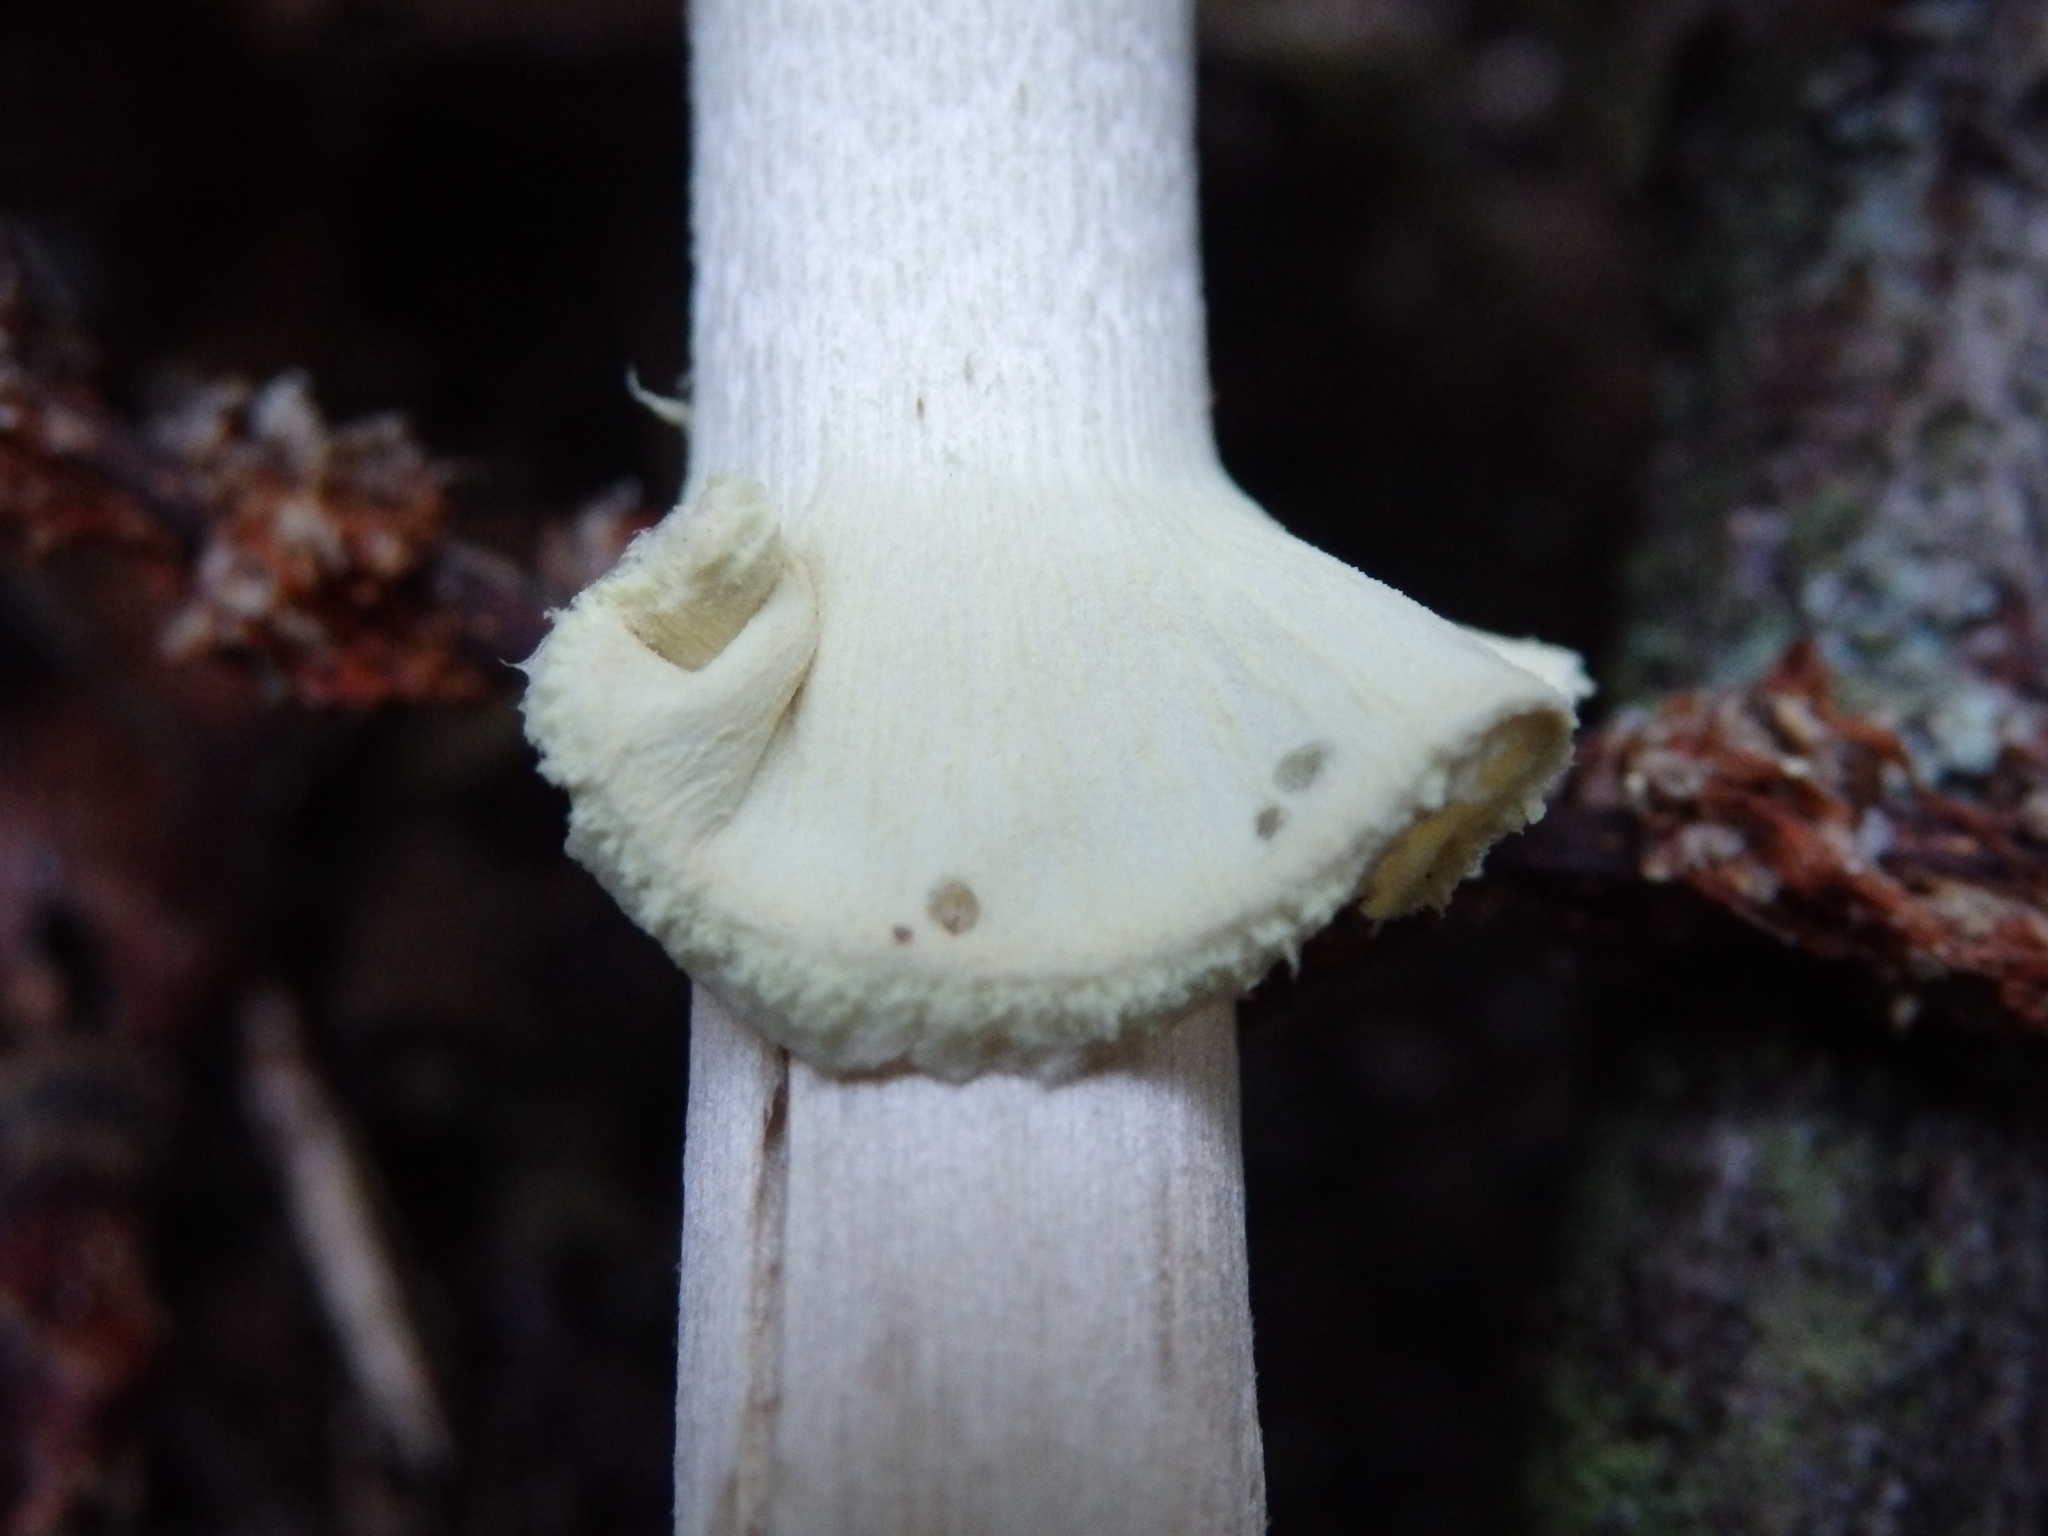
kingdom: Fungi
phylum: Basidiomycota
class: Agaricomycetes
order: Agaricales
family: Amanitaceae
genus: Amanita
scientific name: Amanita citrina
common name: False death-cap
